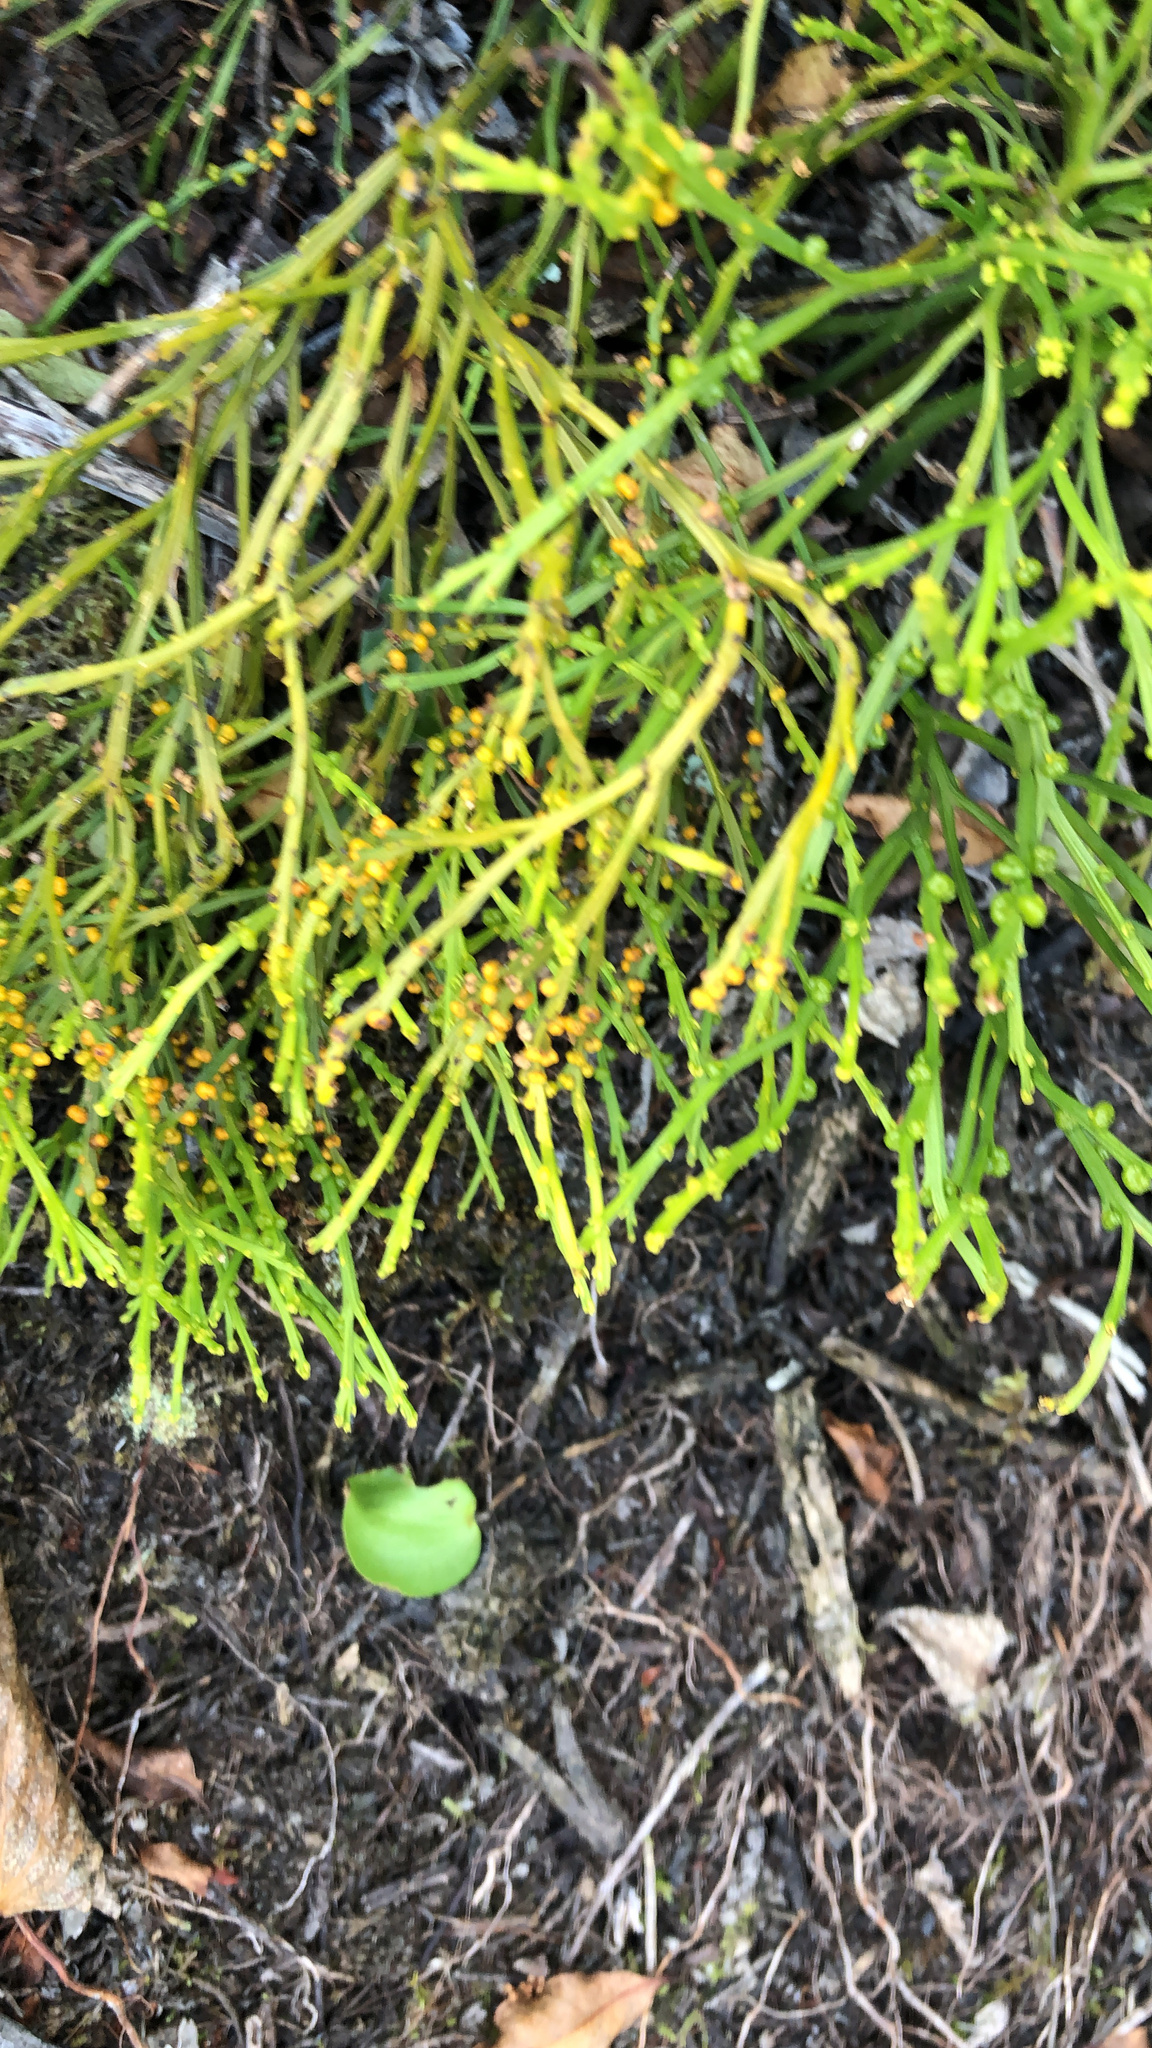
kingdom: Plantae
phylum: Tracheophyta
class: Polypodiopsida
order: Psilotales
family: Psilotaceae
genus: Psilotum
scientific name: Psilotum nudum
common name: Skeleton fork fern
